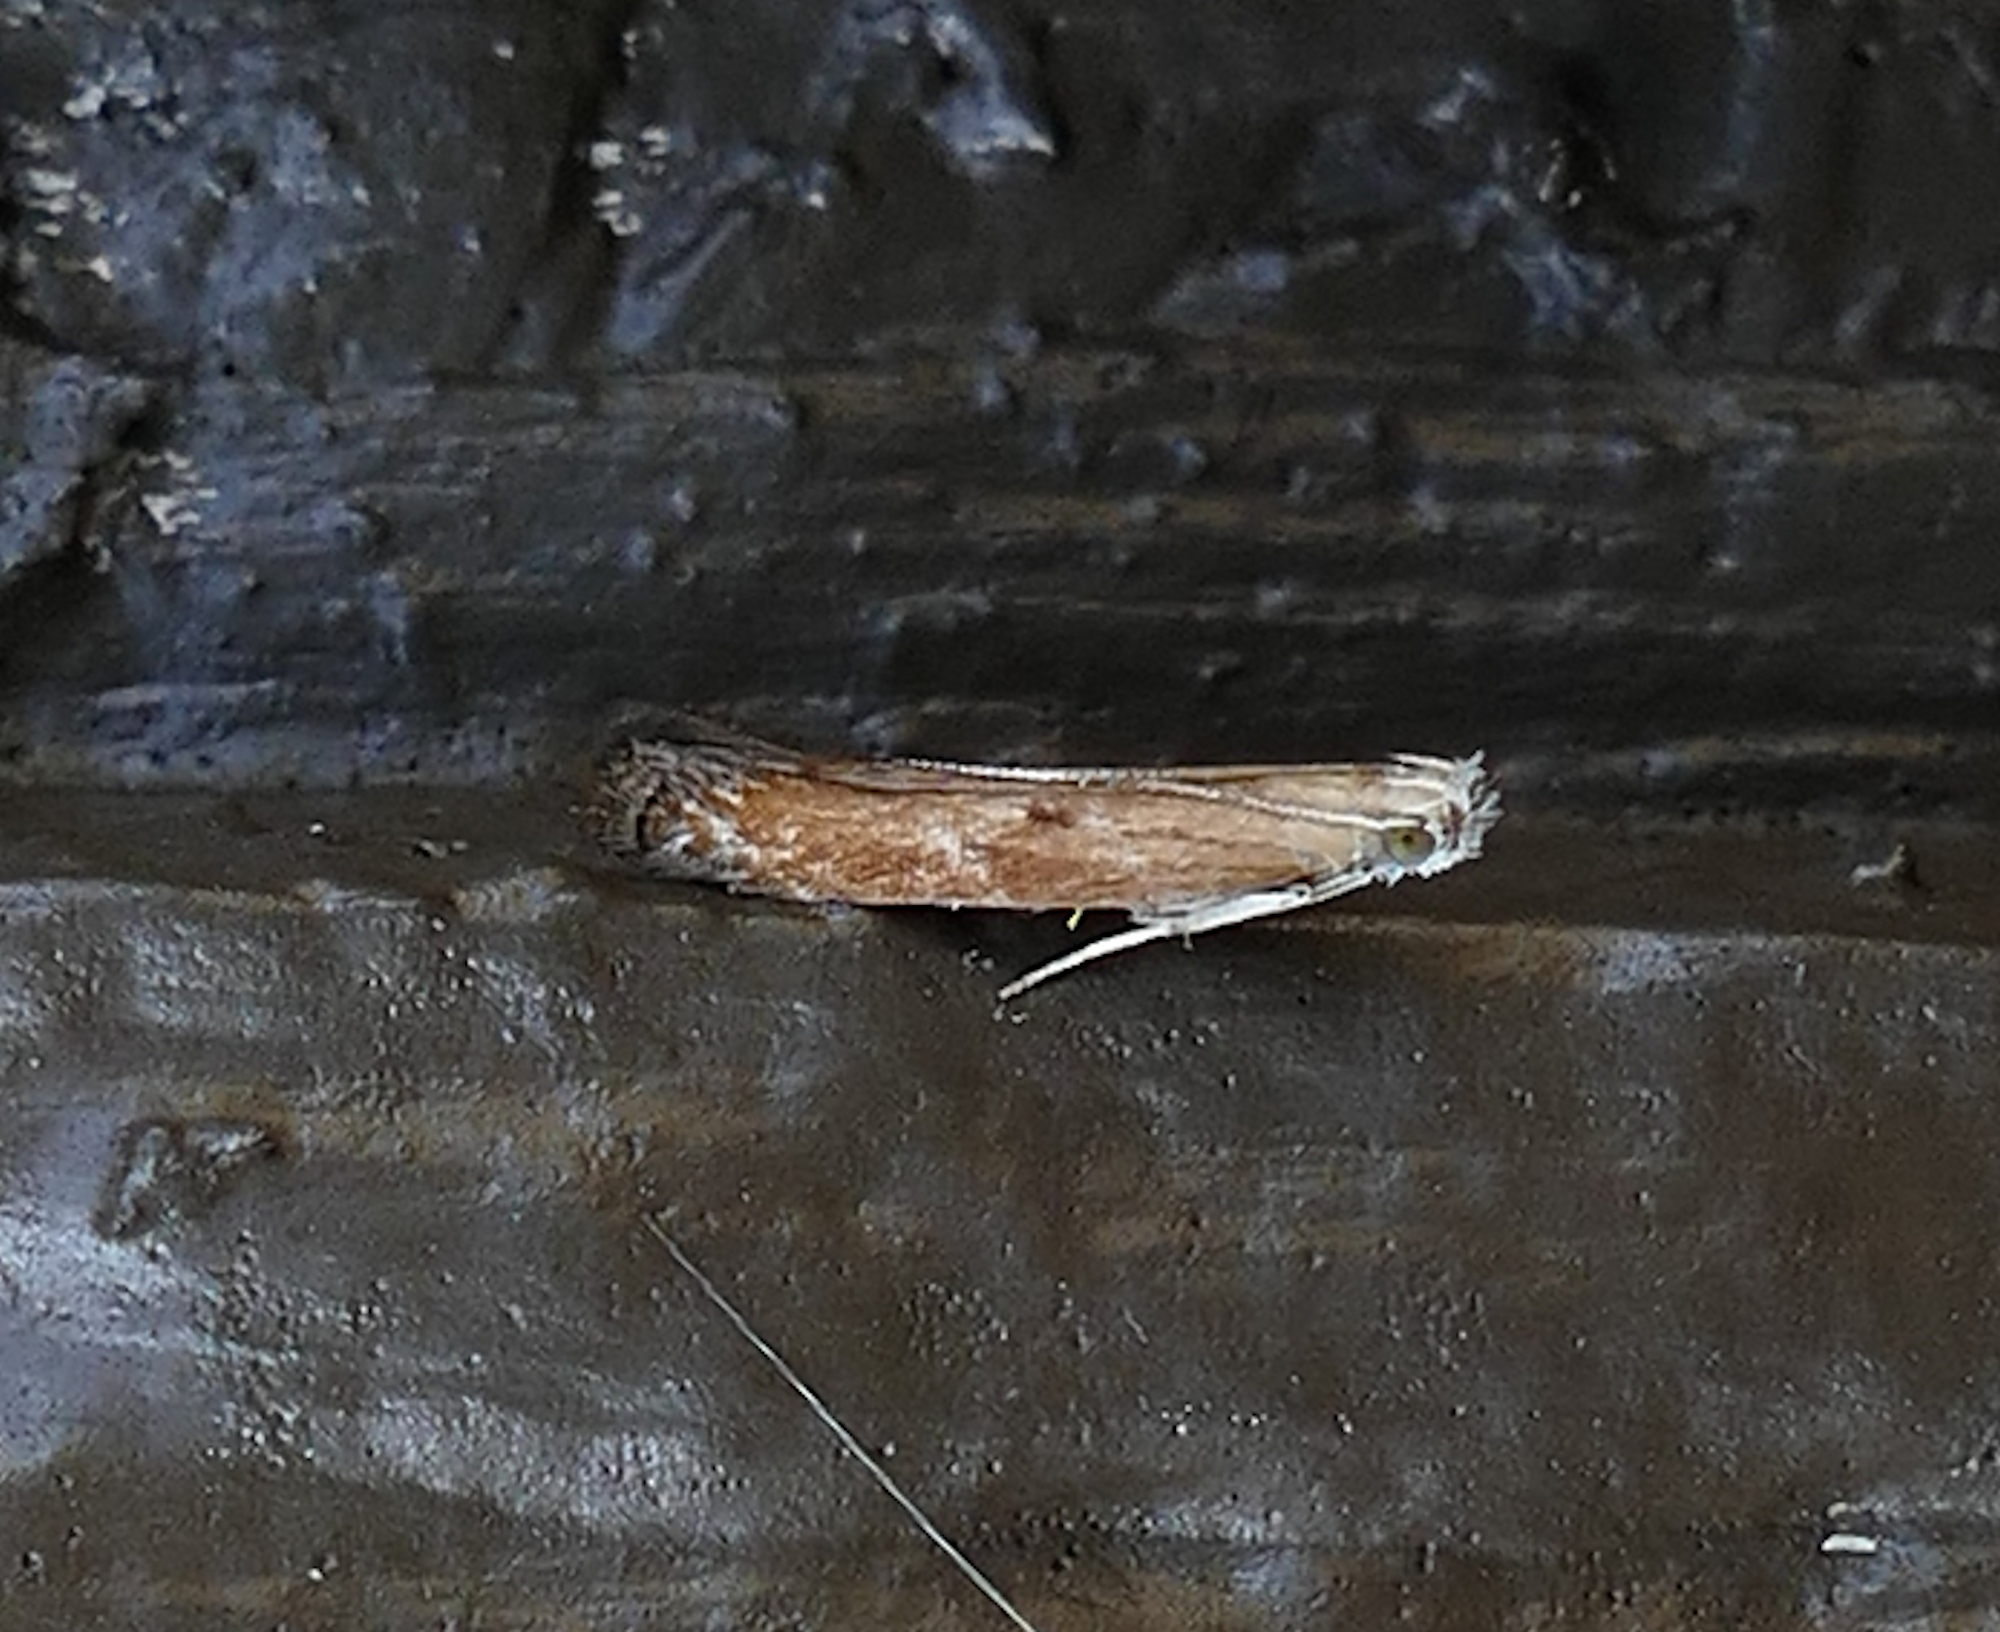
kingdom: Animalia
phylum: Arthropoda
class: Insecta
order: Lepidoptera
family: Gelechiidae
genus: Isophrictis
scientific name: Isophrictis anteliella
